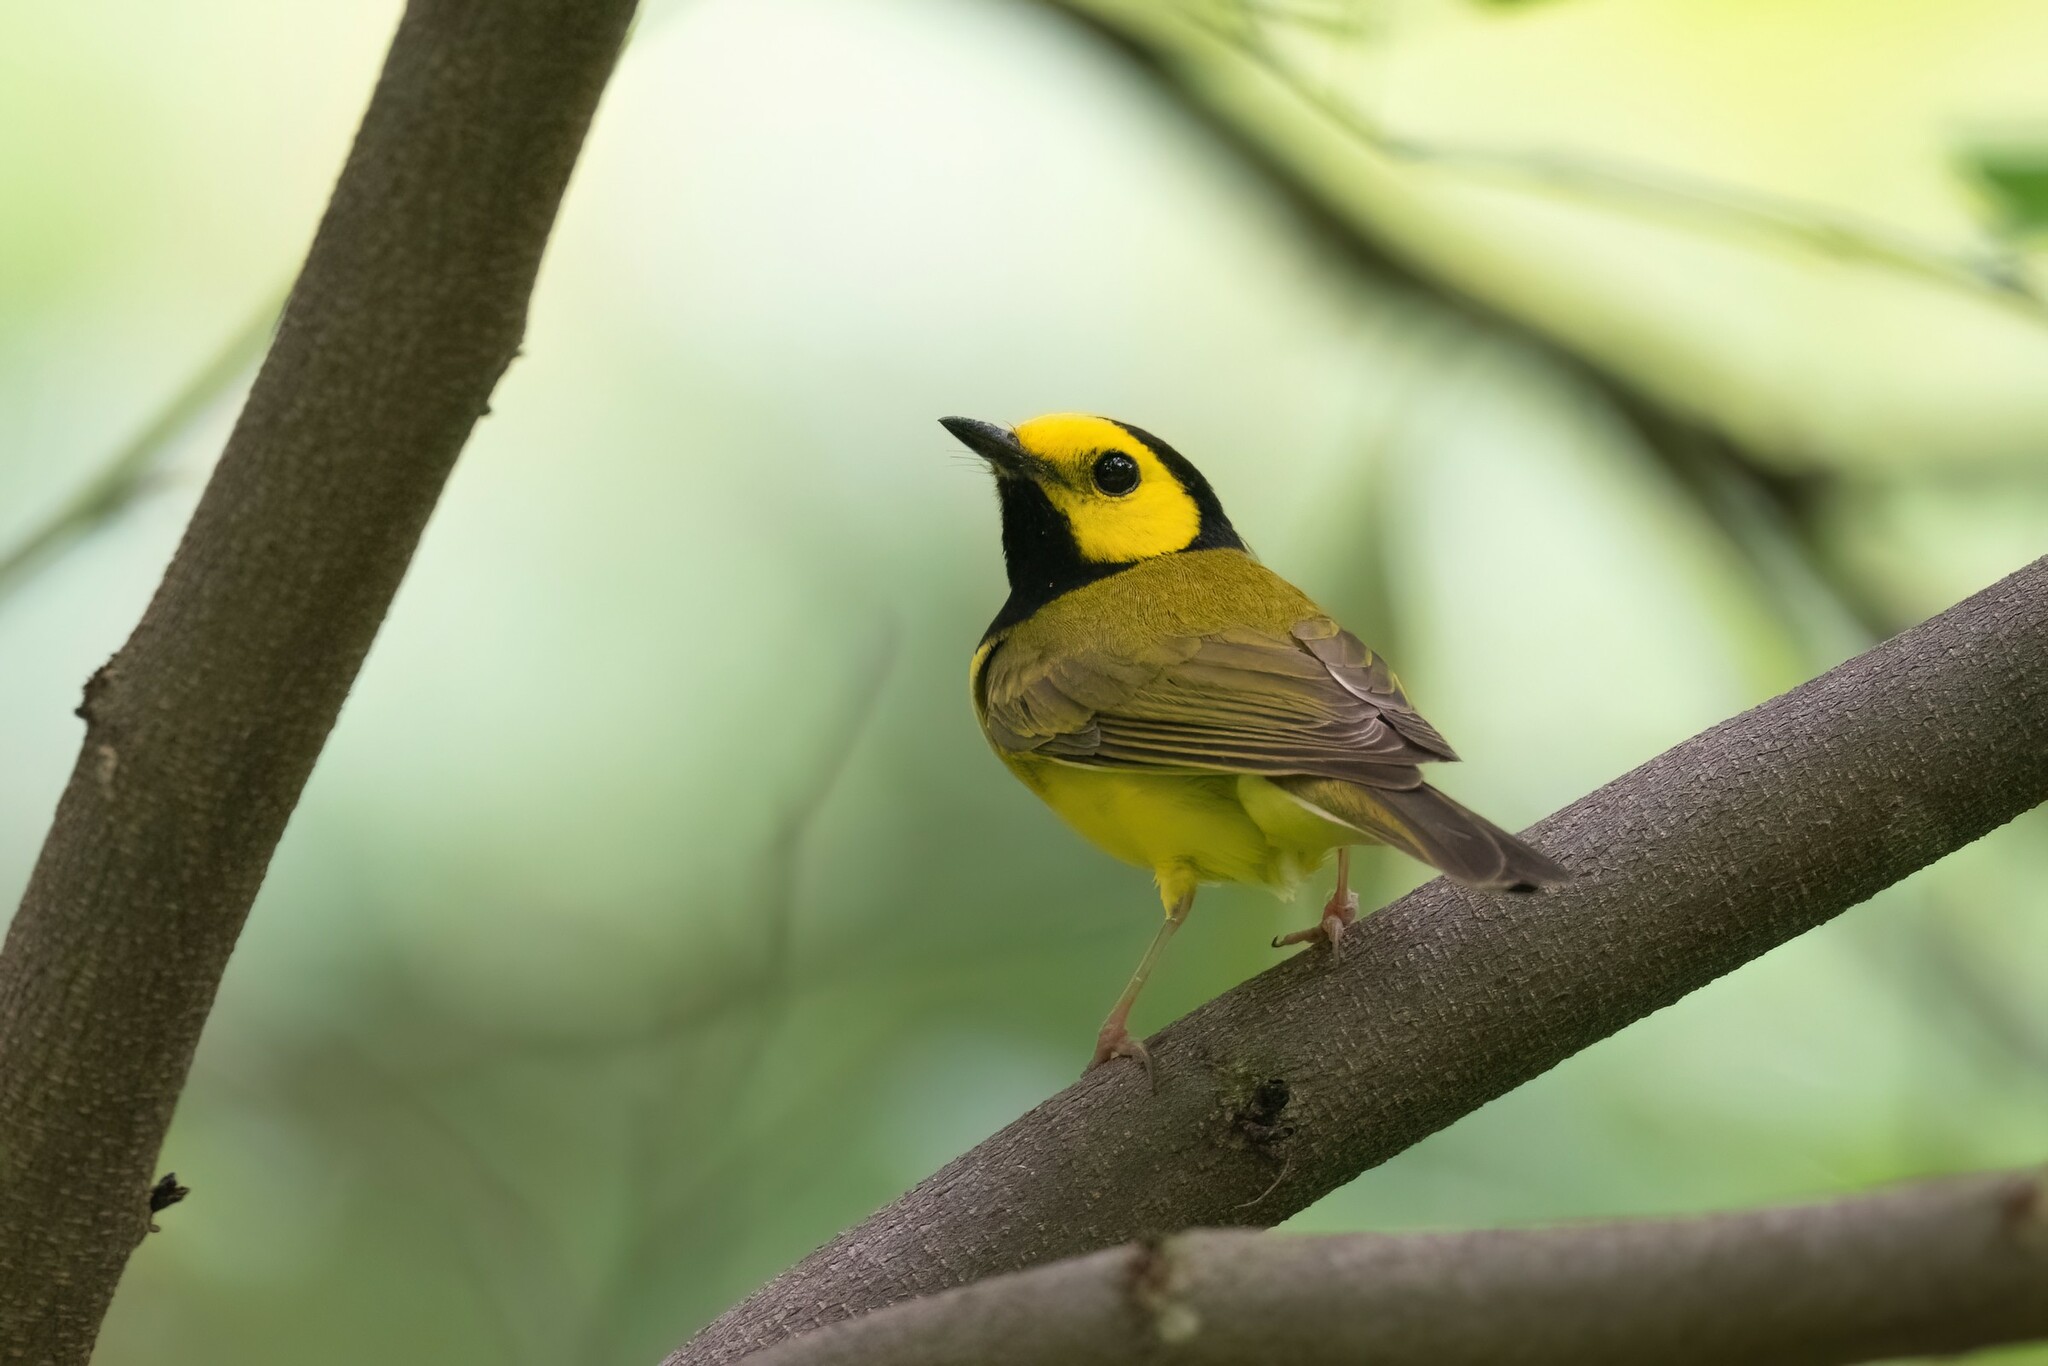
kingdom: Animalia
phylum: Chordata
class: Aves
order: Passeriformes
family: Parulidae
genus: Setophaga
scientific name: Setophaga citrina
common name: Hooded warbler
